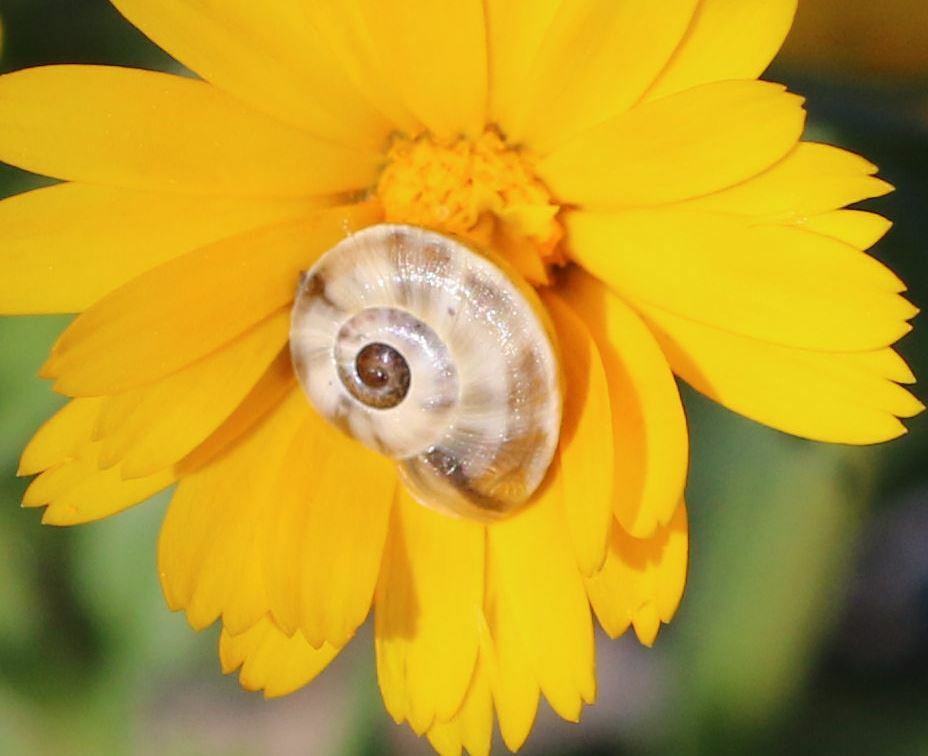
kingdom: Animalia
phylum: Mollusca
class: Gastropoda
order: Stylommatophora
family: Helicidae
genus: Theba
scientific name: Theba pisana
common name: White snail
